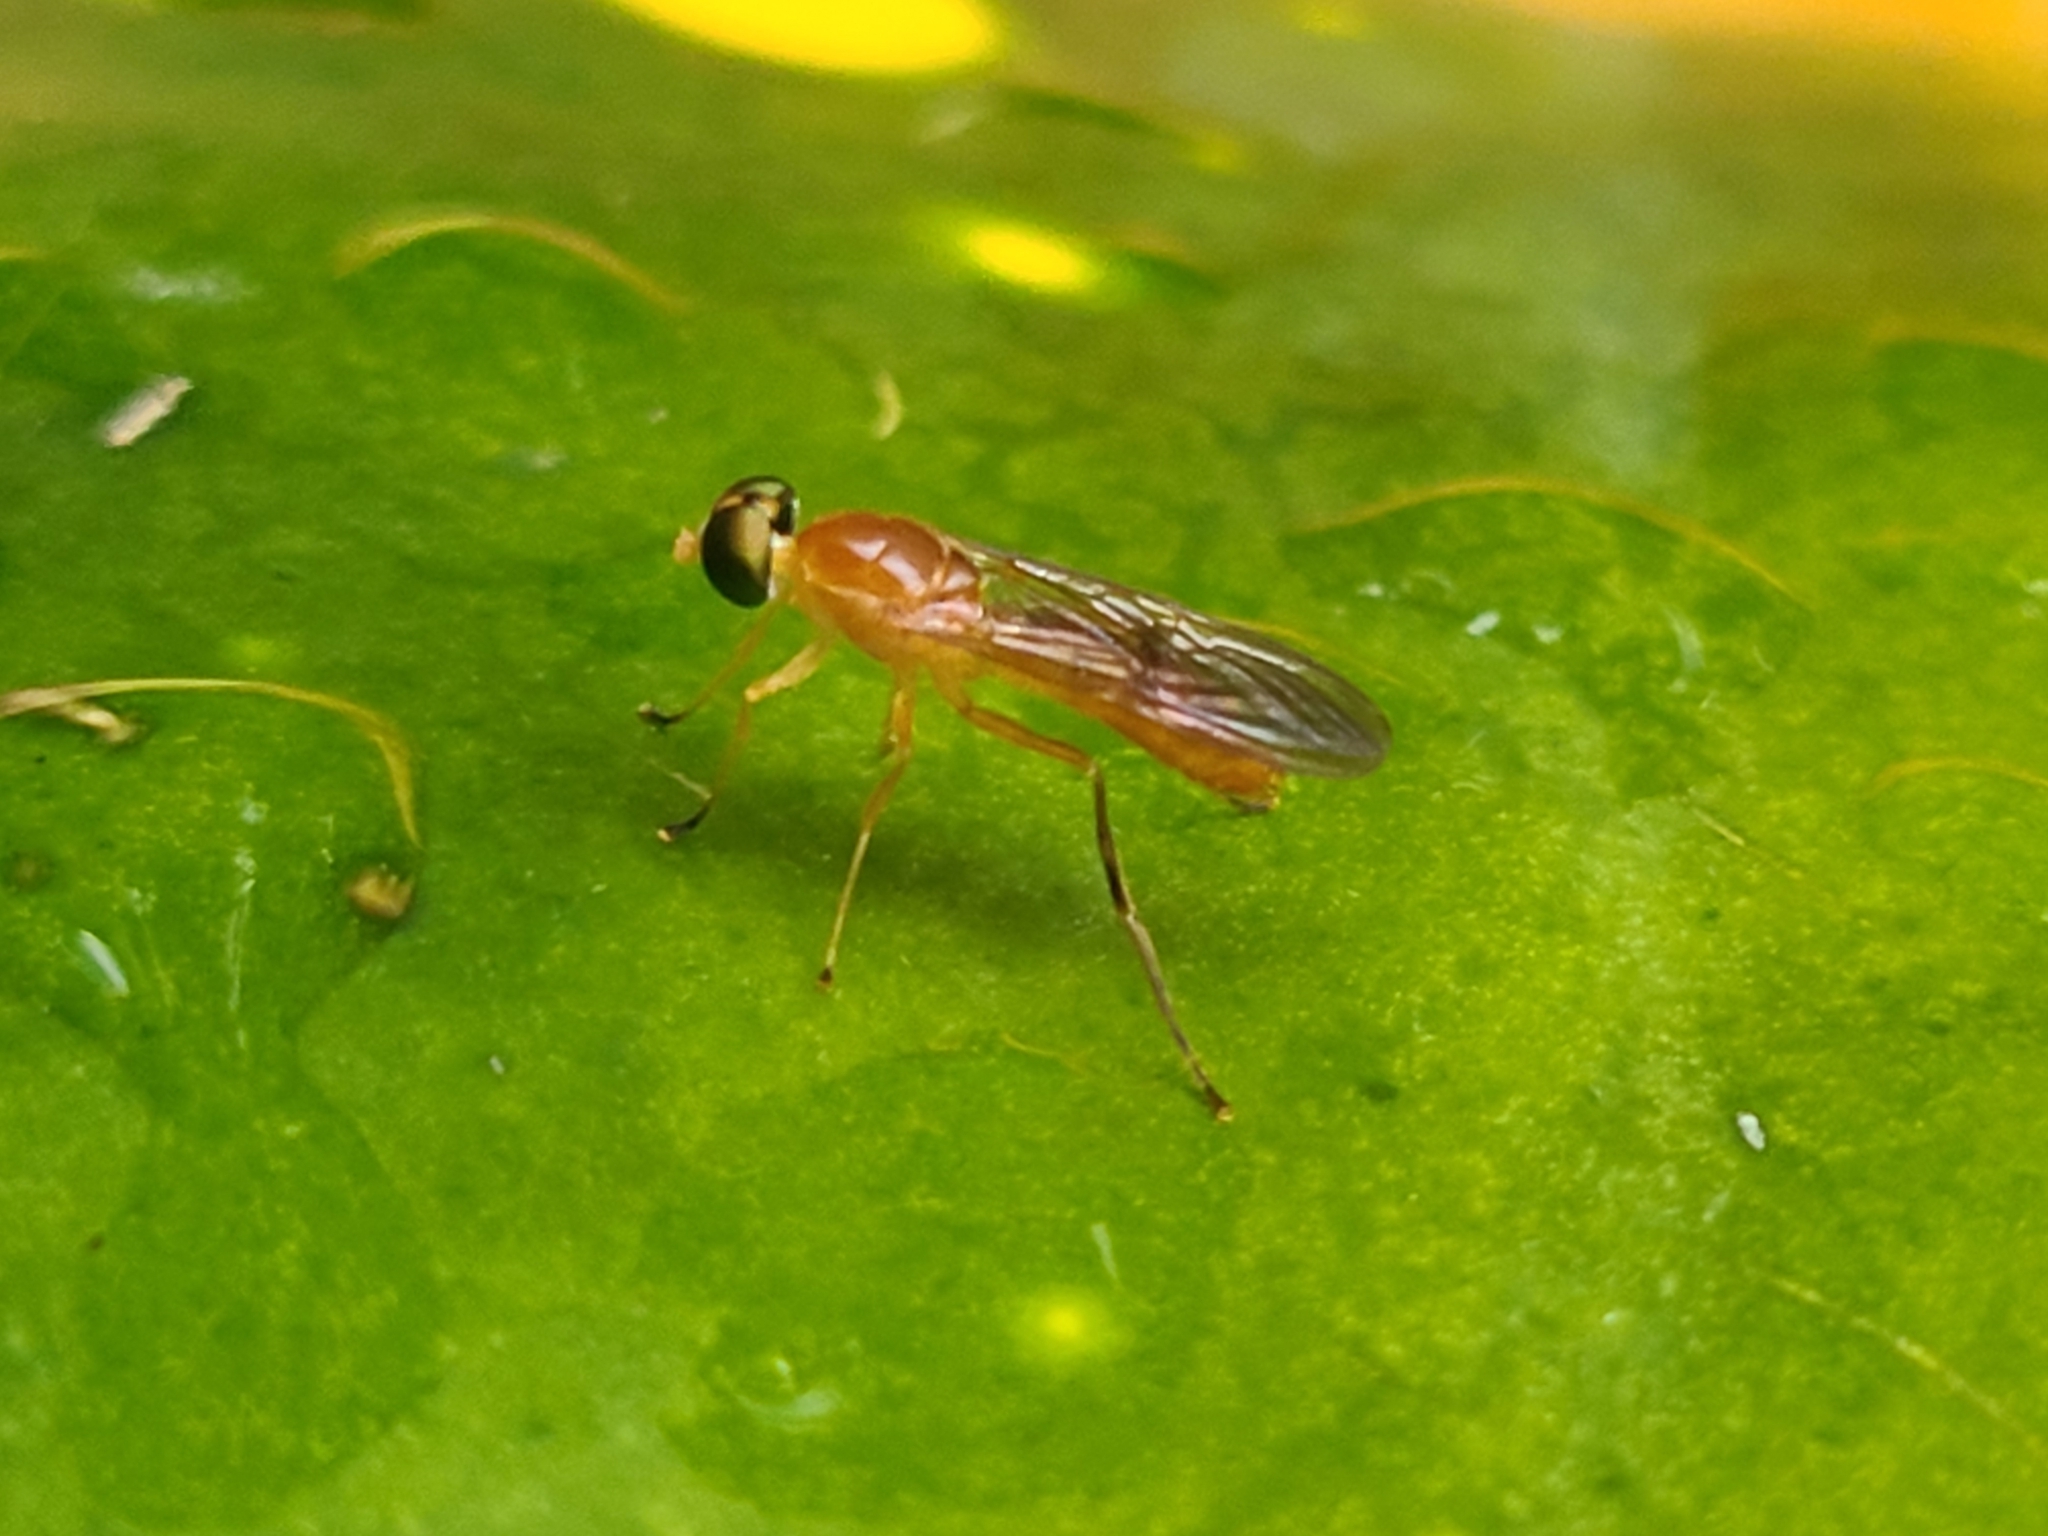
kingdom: Animalia
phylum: Arthropoda
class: Insecta
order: Diptera
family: Stratiomyidae
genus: Ptecticus
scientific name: Ptecticus trivittatus
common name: Compost fly
